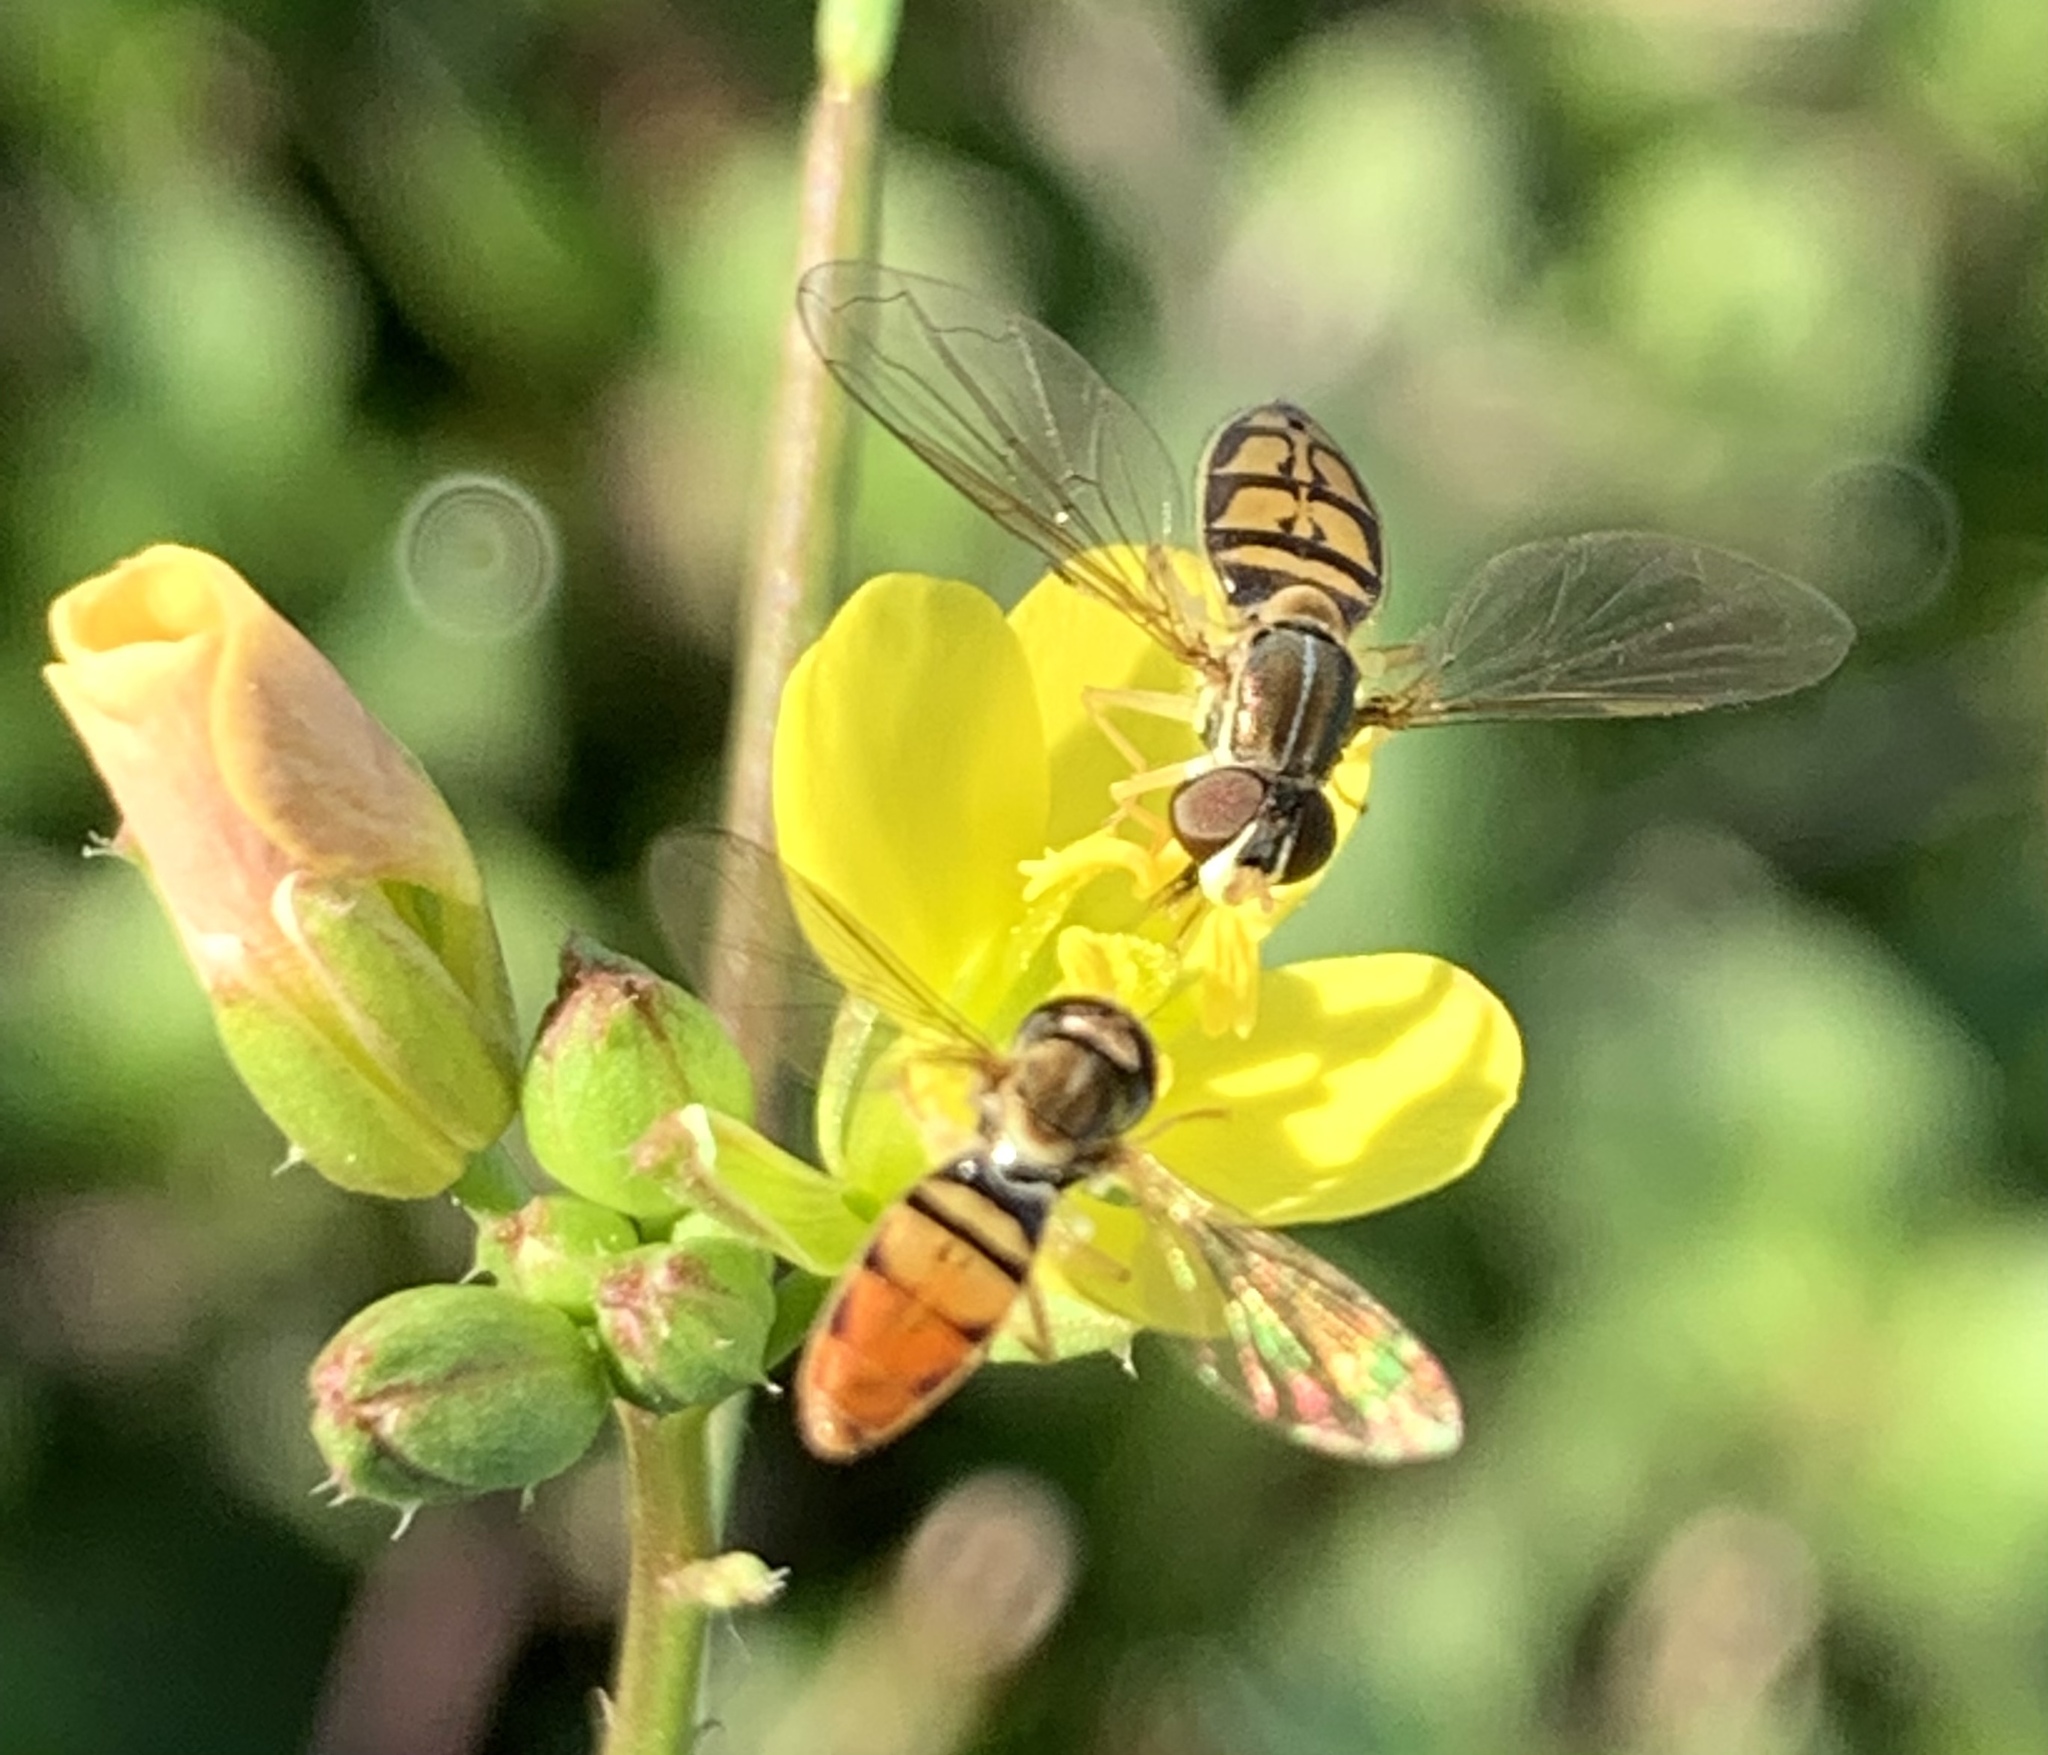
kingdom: Animalia
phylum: Arthropoda
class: Insecta
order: Diptera
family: Syrphidae
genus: Toxomerus
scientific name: Toxomerus marginatus
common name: Syrphid fly
